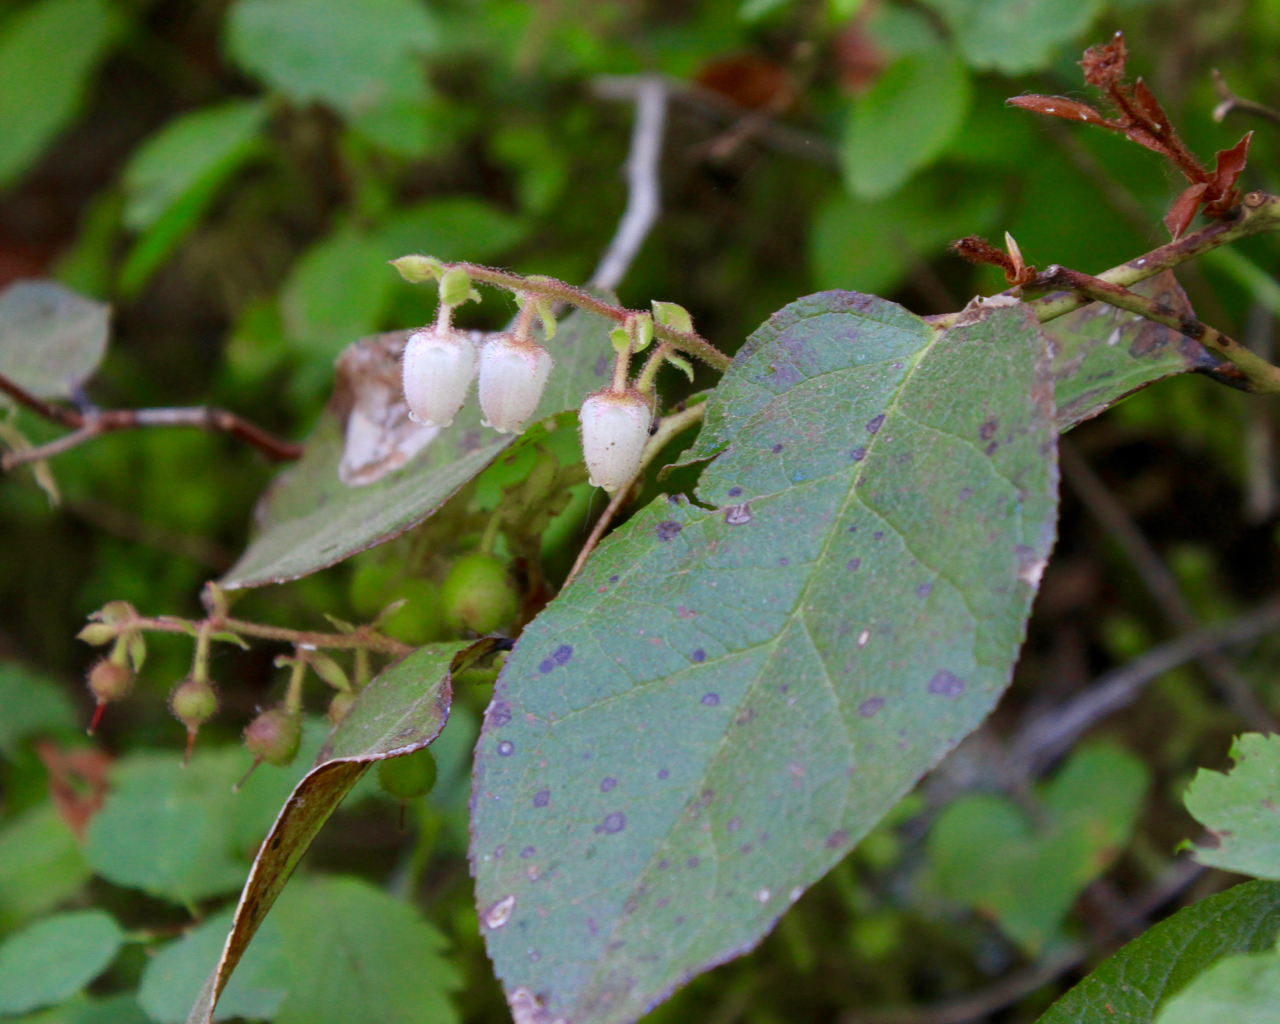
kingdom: Plantae
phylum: Tracheophyta
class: Magnoliopsida
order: Ericales
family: Ericaceae
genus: Gaultheria
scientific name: Gaultheria shallon
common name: Shallon
